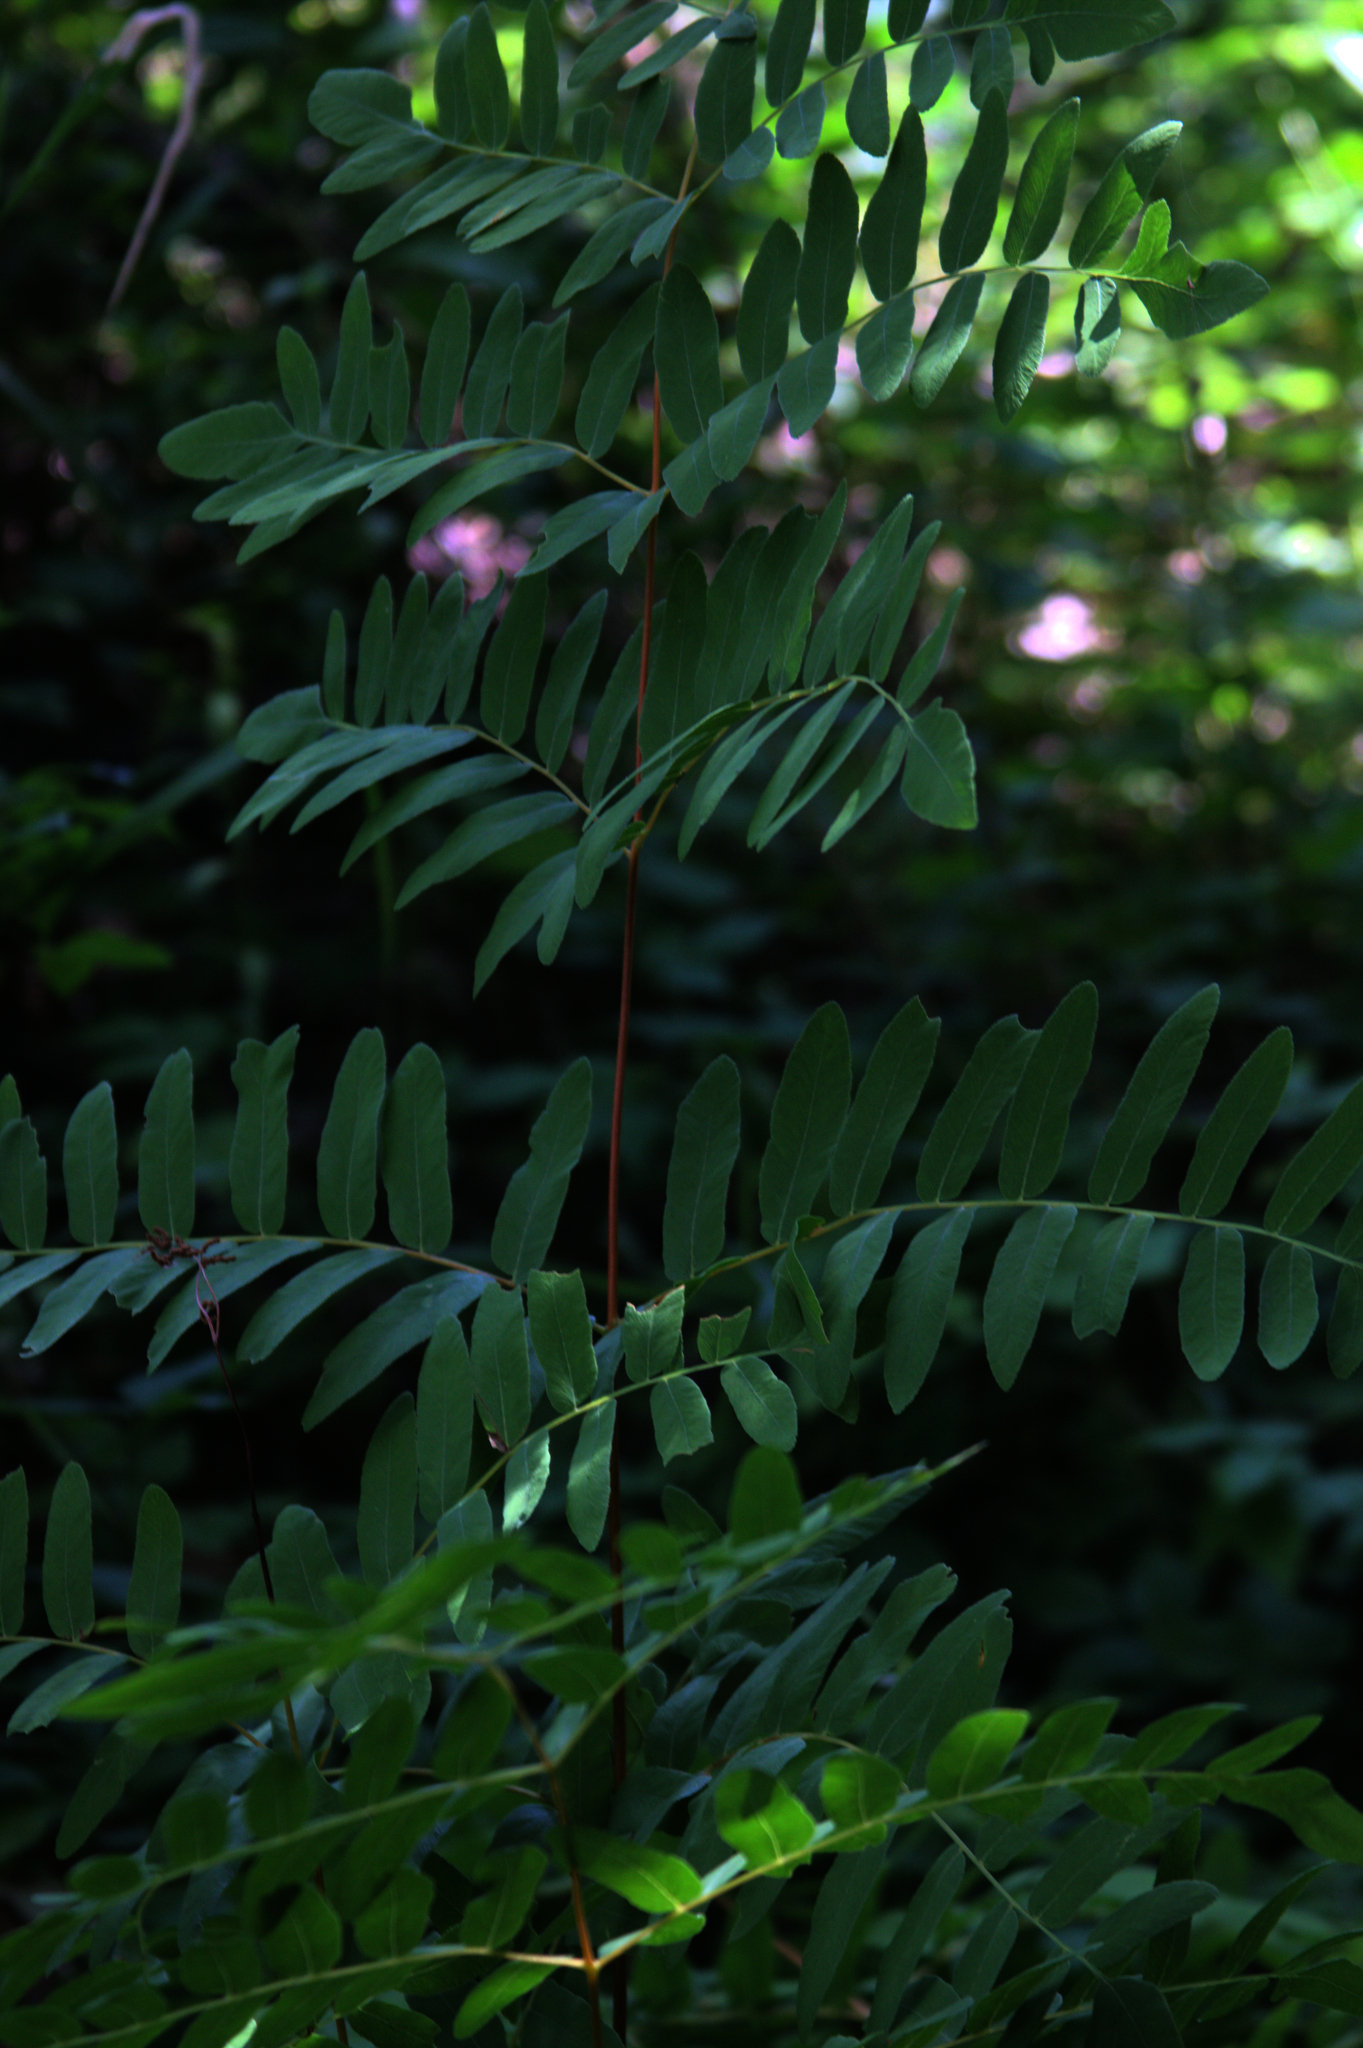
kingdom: Plantae
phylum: Tracheophyta
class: Polypodiopsida
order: Osmundales
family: Osmundaceae
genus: Osmunda
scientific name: Osmunda spectabilis
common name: American royal fern
